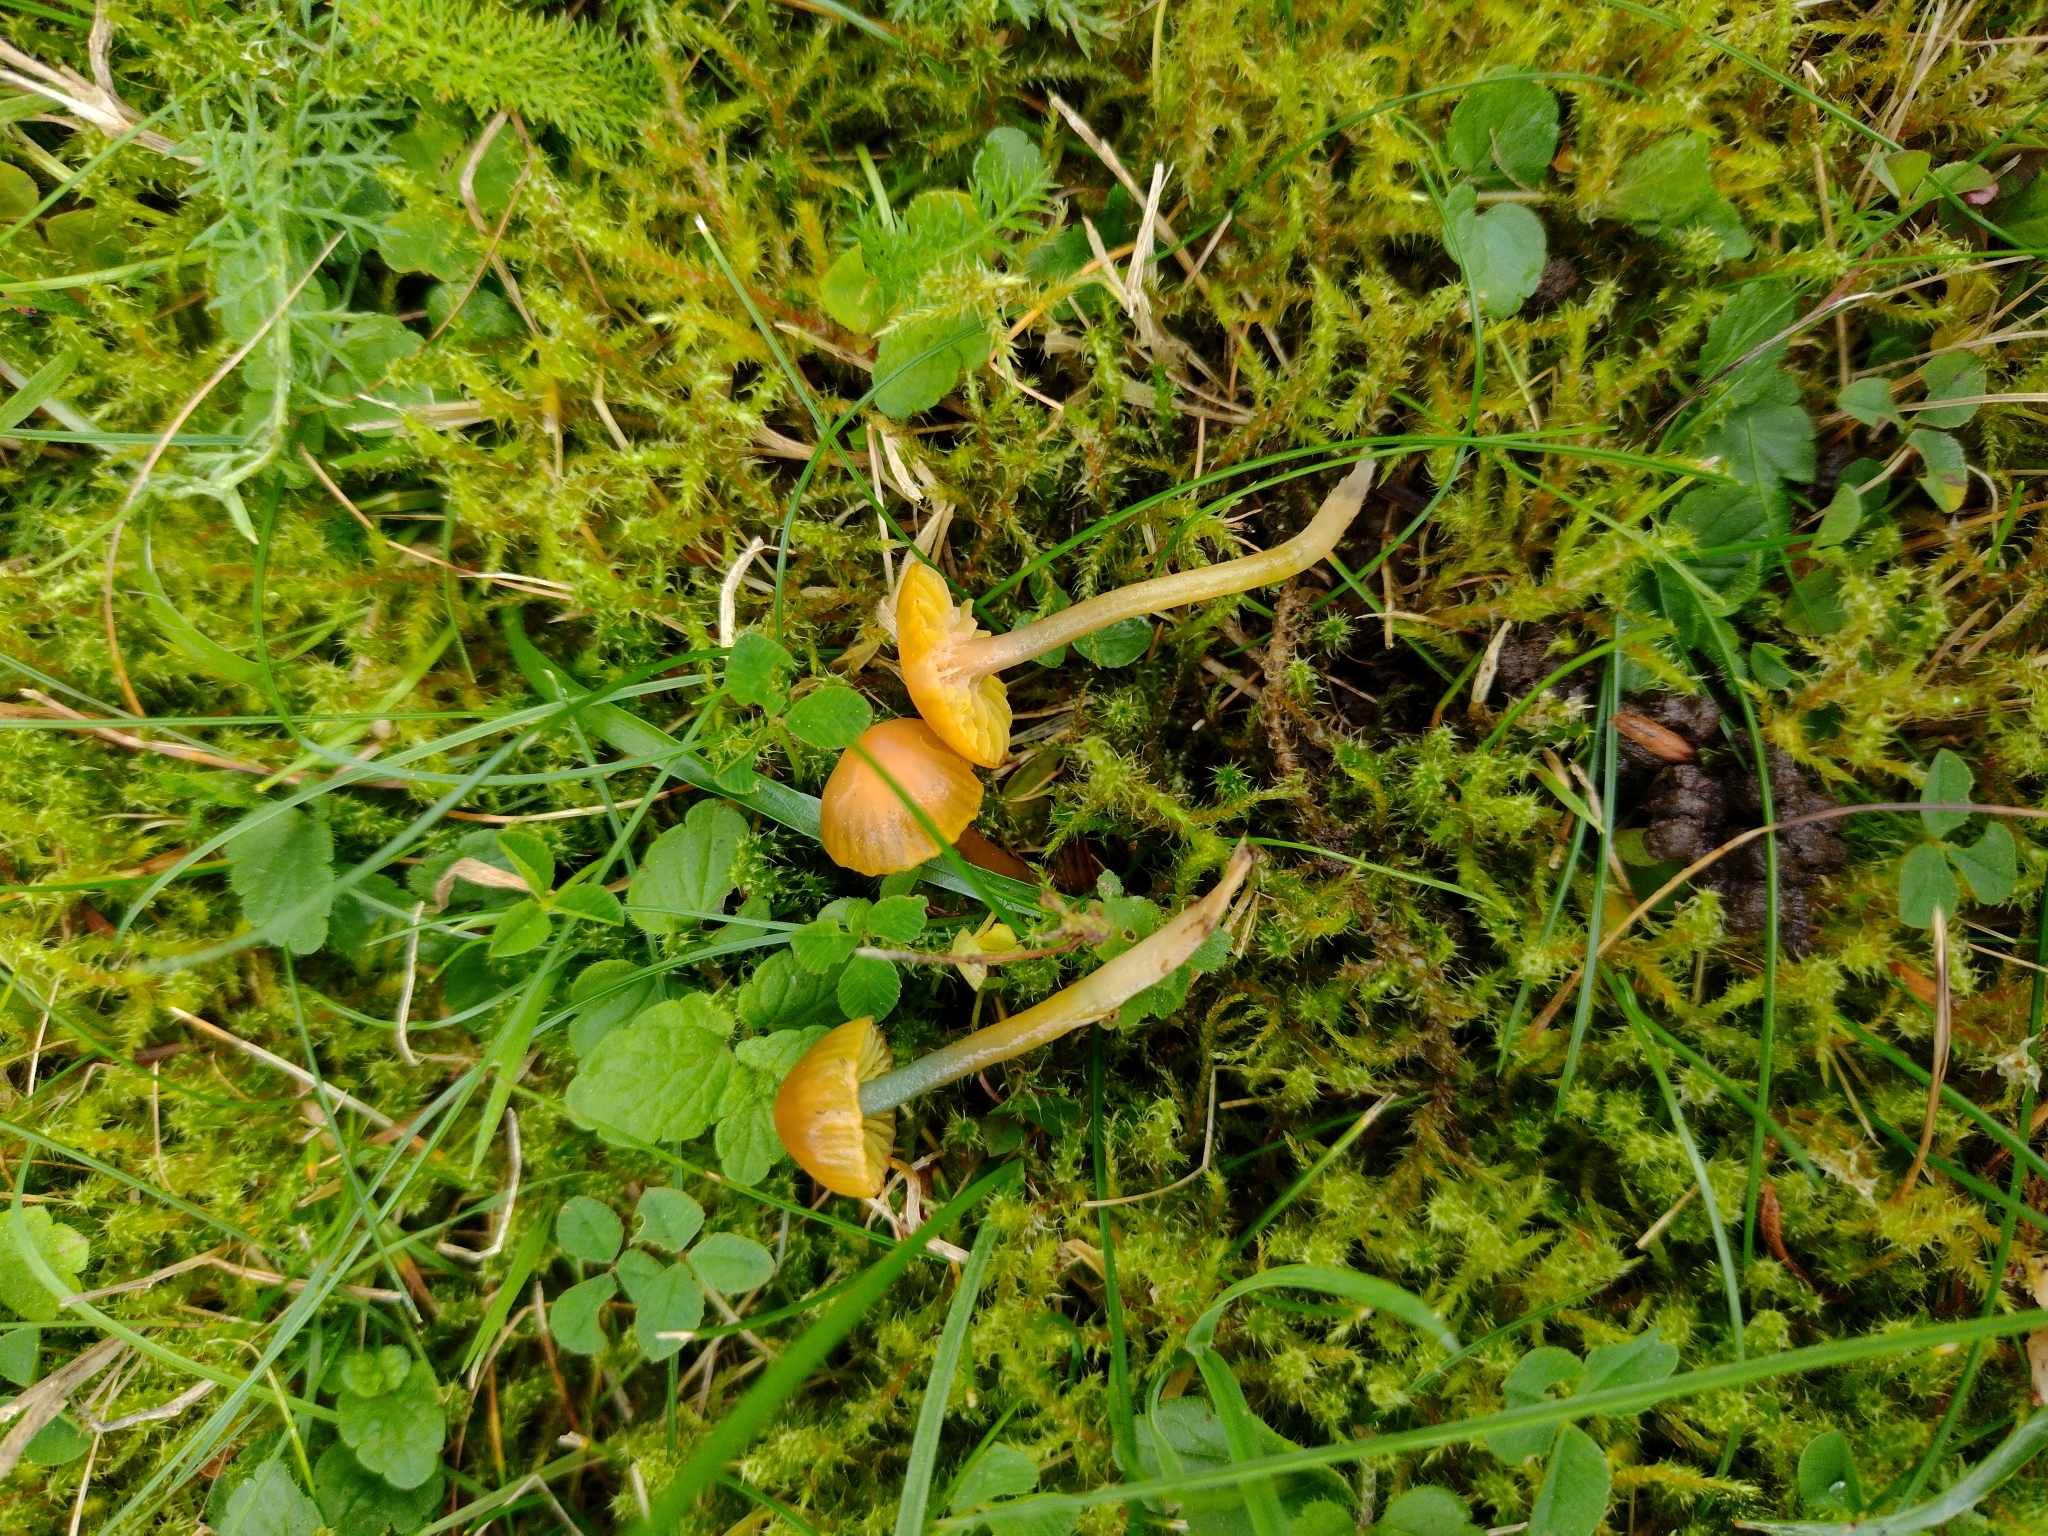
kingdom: Fungi
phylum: Basidiomycota
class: Agaricomycetes
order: Agaricales
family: Hygrophoraceae
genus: Gliophorus
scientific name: Gliophorus psittacinus
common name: Parrot wax-cap
